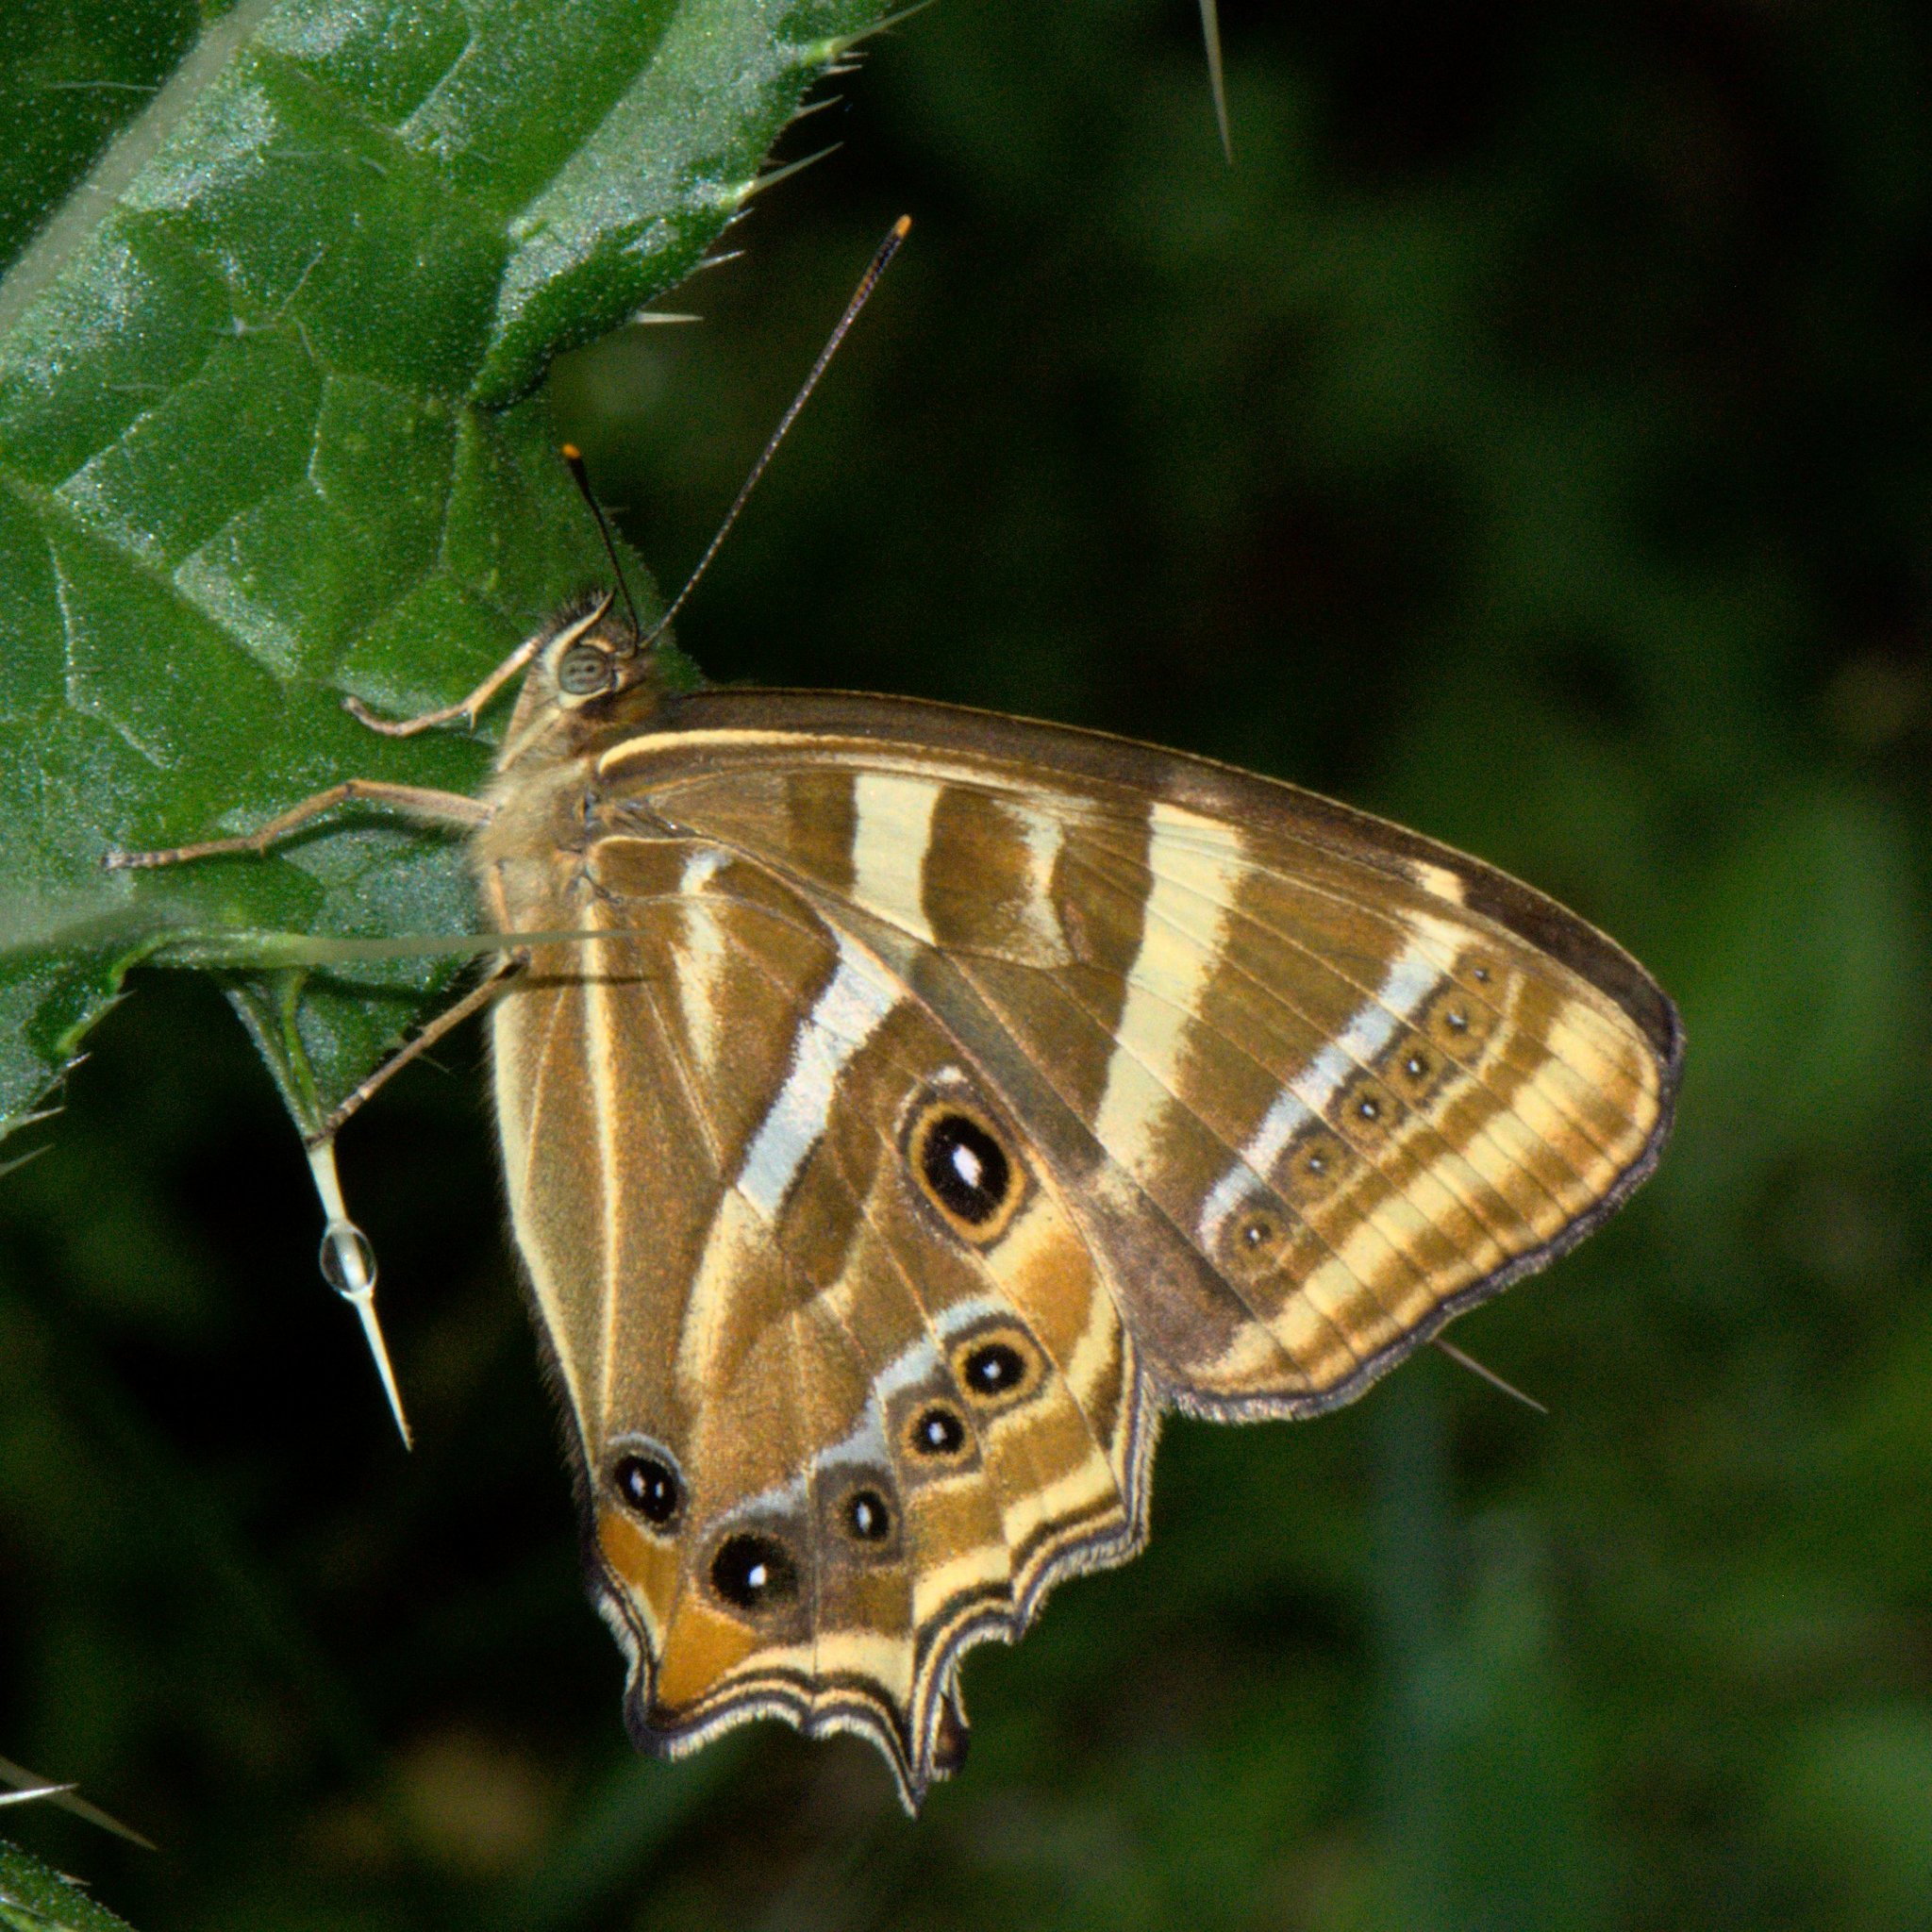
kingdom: Animalia
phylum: Arthropoda
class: Insecta
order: Lepidoptera
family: Nymphalidae
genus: Lethe
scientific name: Lethe baladeva
